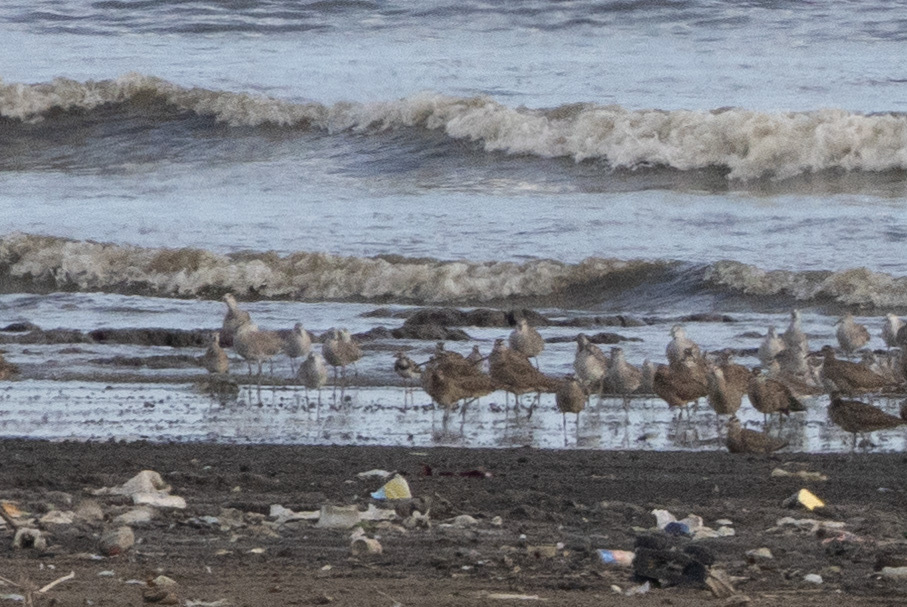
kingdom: Animalia
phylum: Chordata
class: Aves
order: Charadriiformes
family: Scolopacidae
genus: Arenaria
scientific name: Arenaria interpres
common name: Ruddy turnstone
